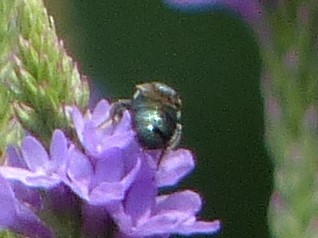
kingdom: Animalia
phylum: Arthropoda
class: Insecta
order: Hymenoptera
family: Apidae
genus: Zadontomerus
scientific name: Zadontomerus
